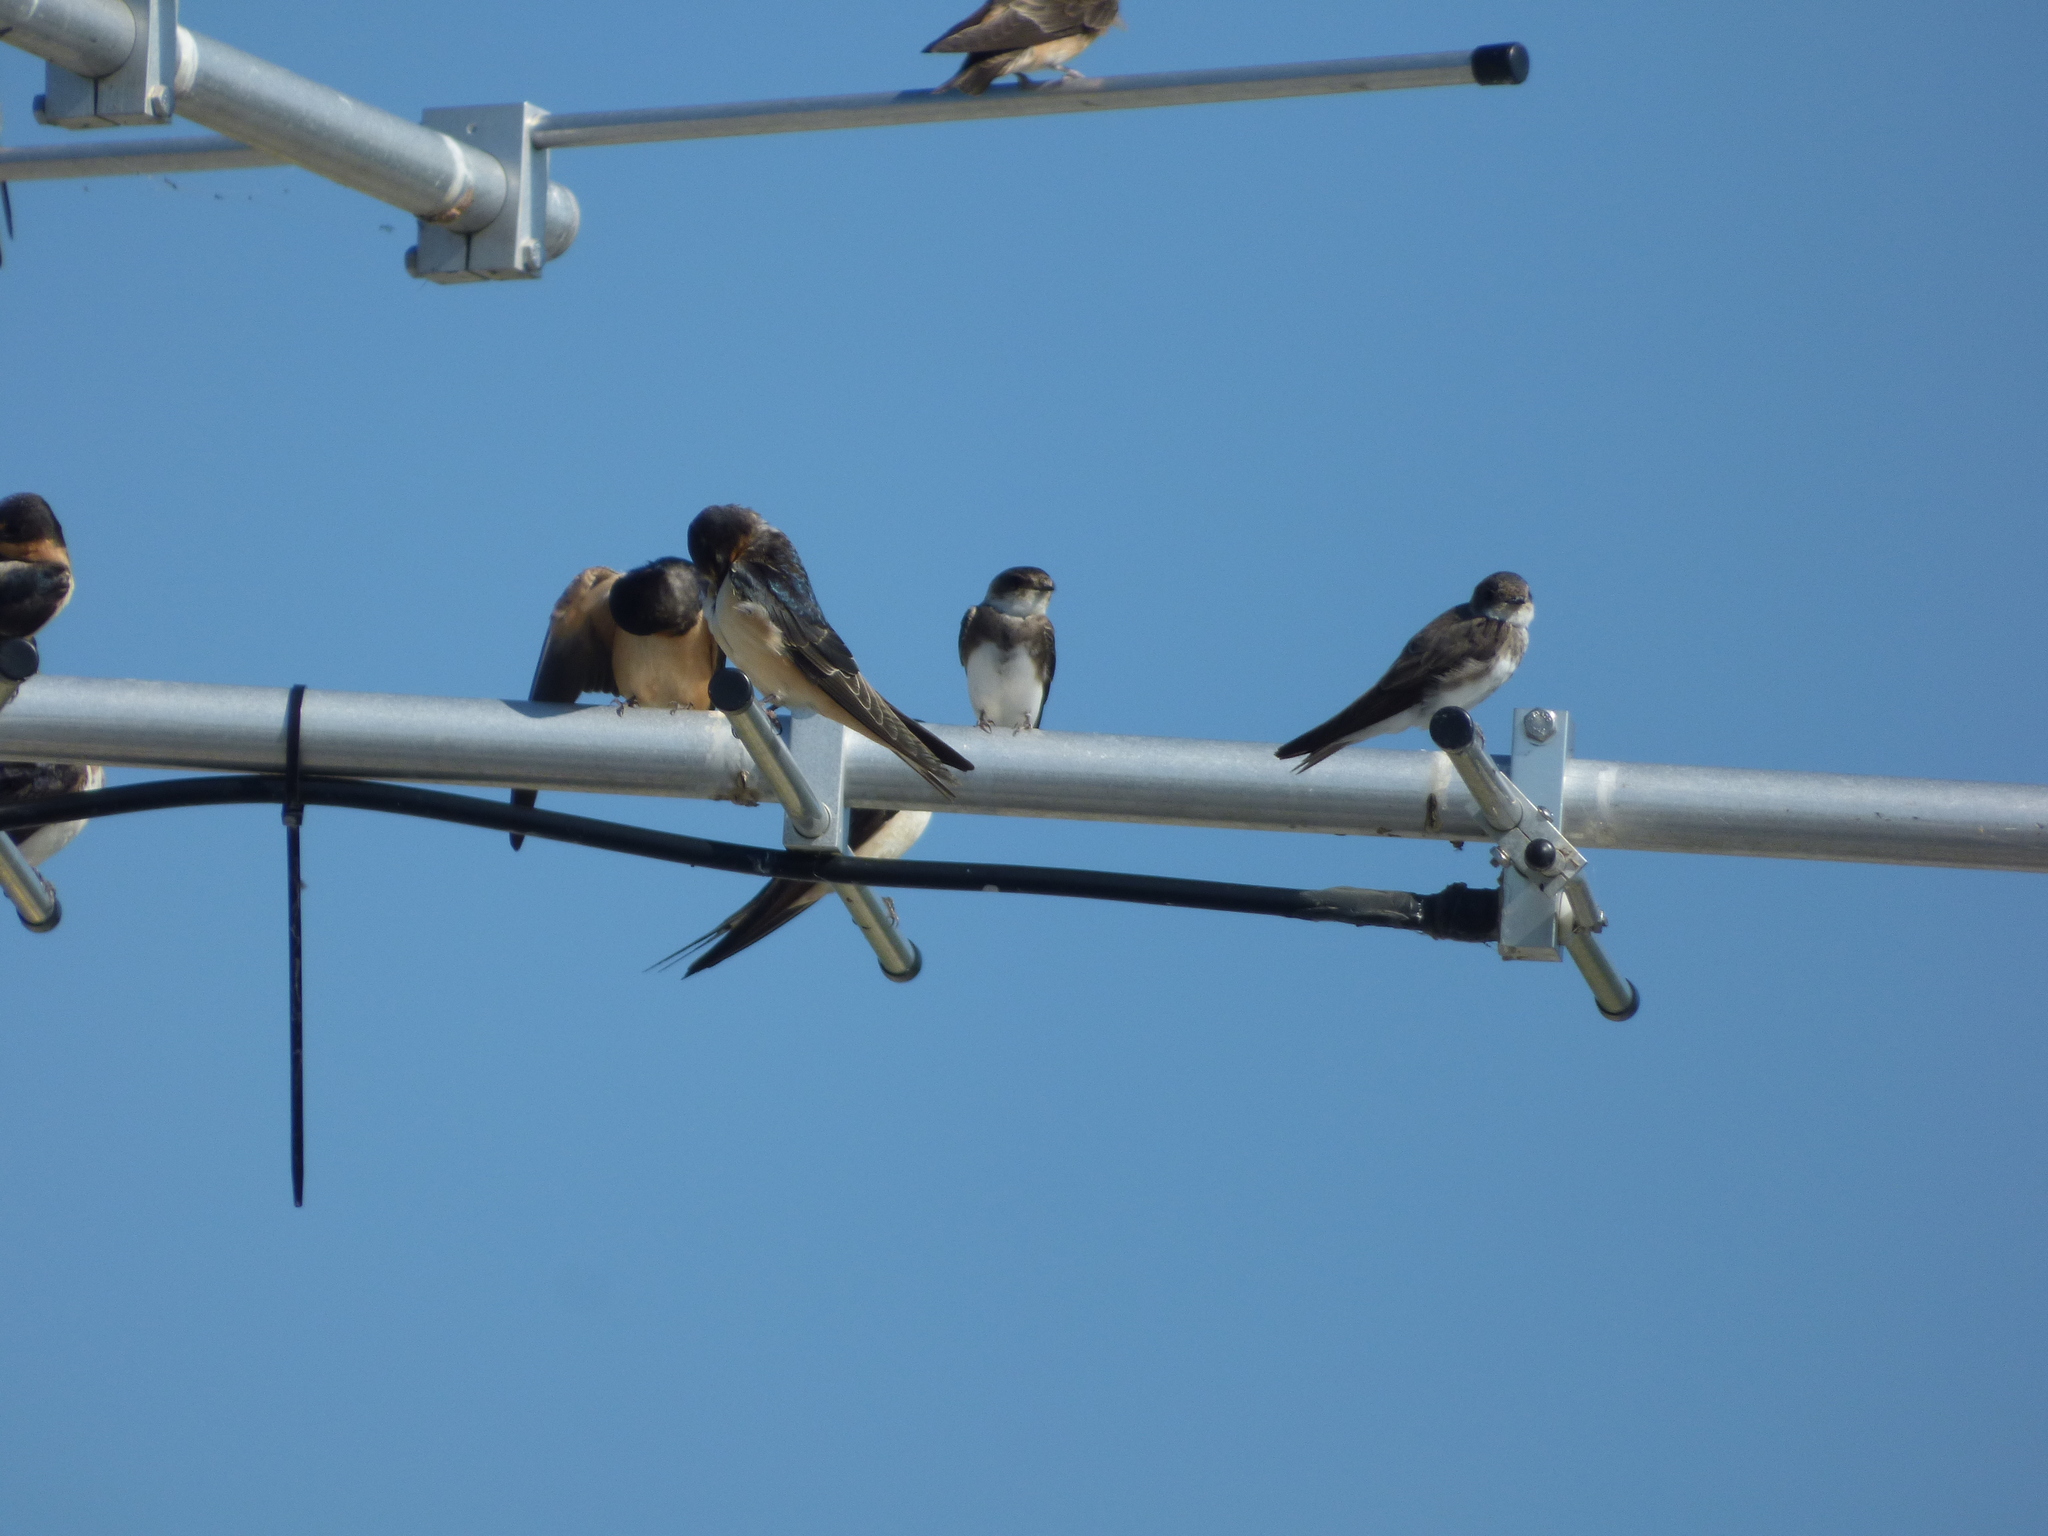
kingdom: Animalia
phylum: Chordata
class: Aves
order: Passeriformes
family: Hirundinidae
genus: Riparia
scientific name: Riparia riparia
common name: Sand martin
